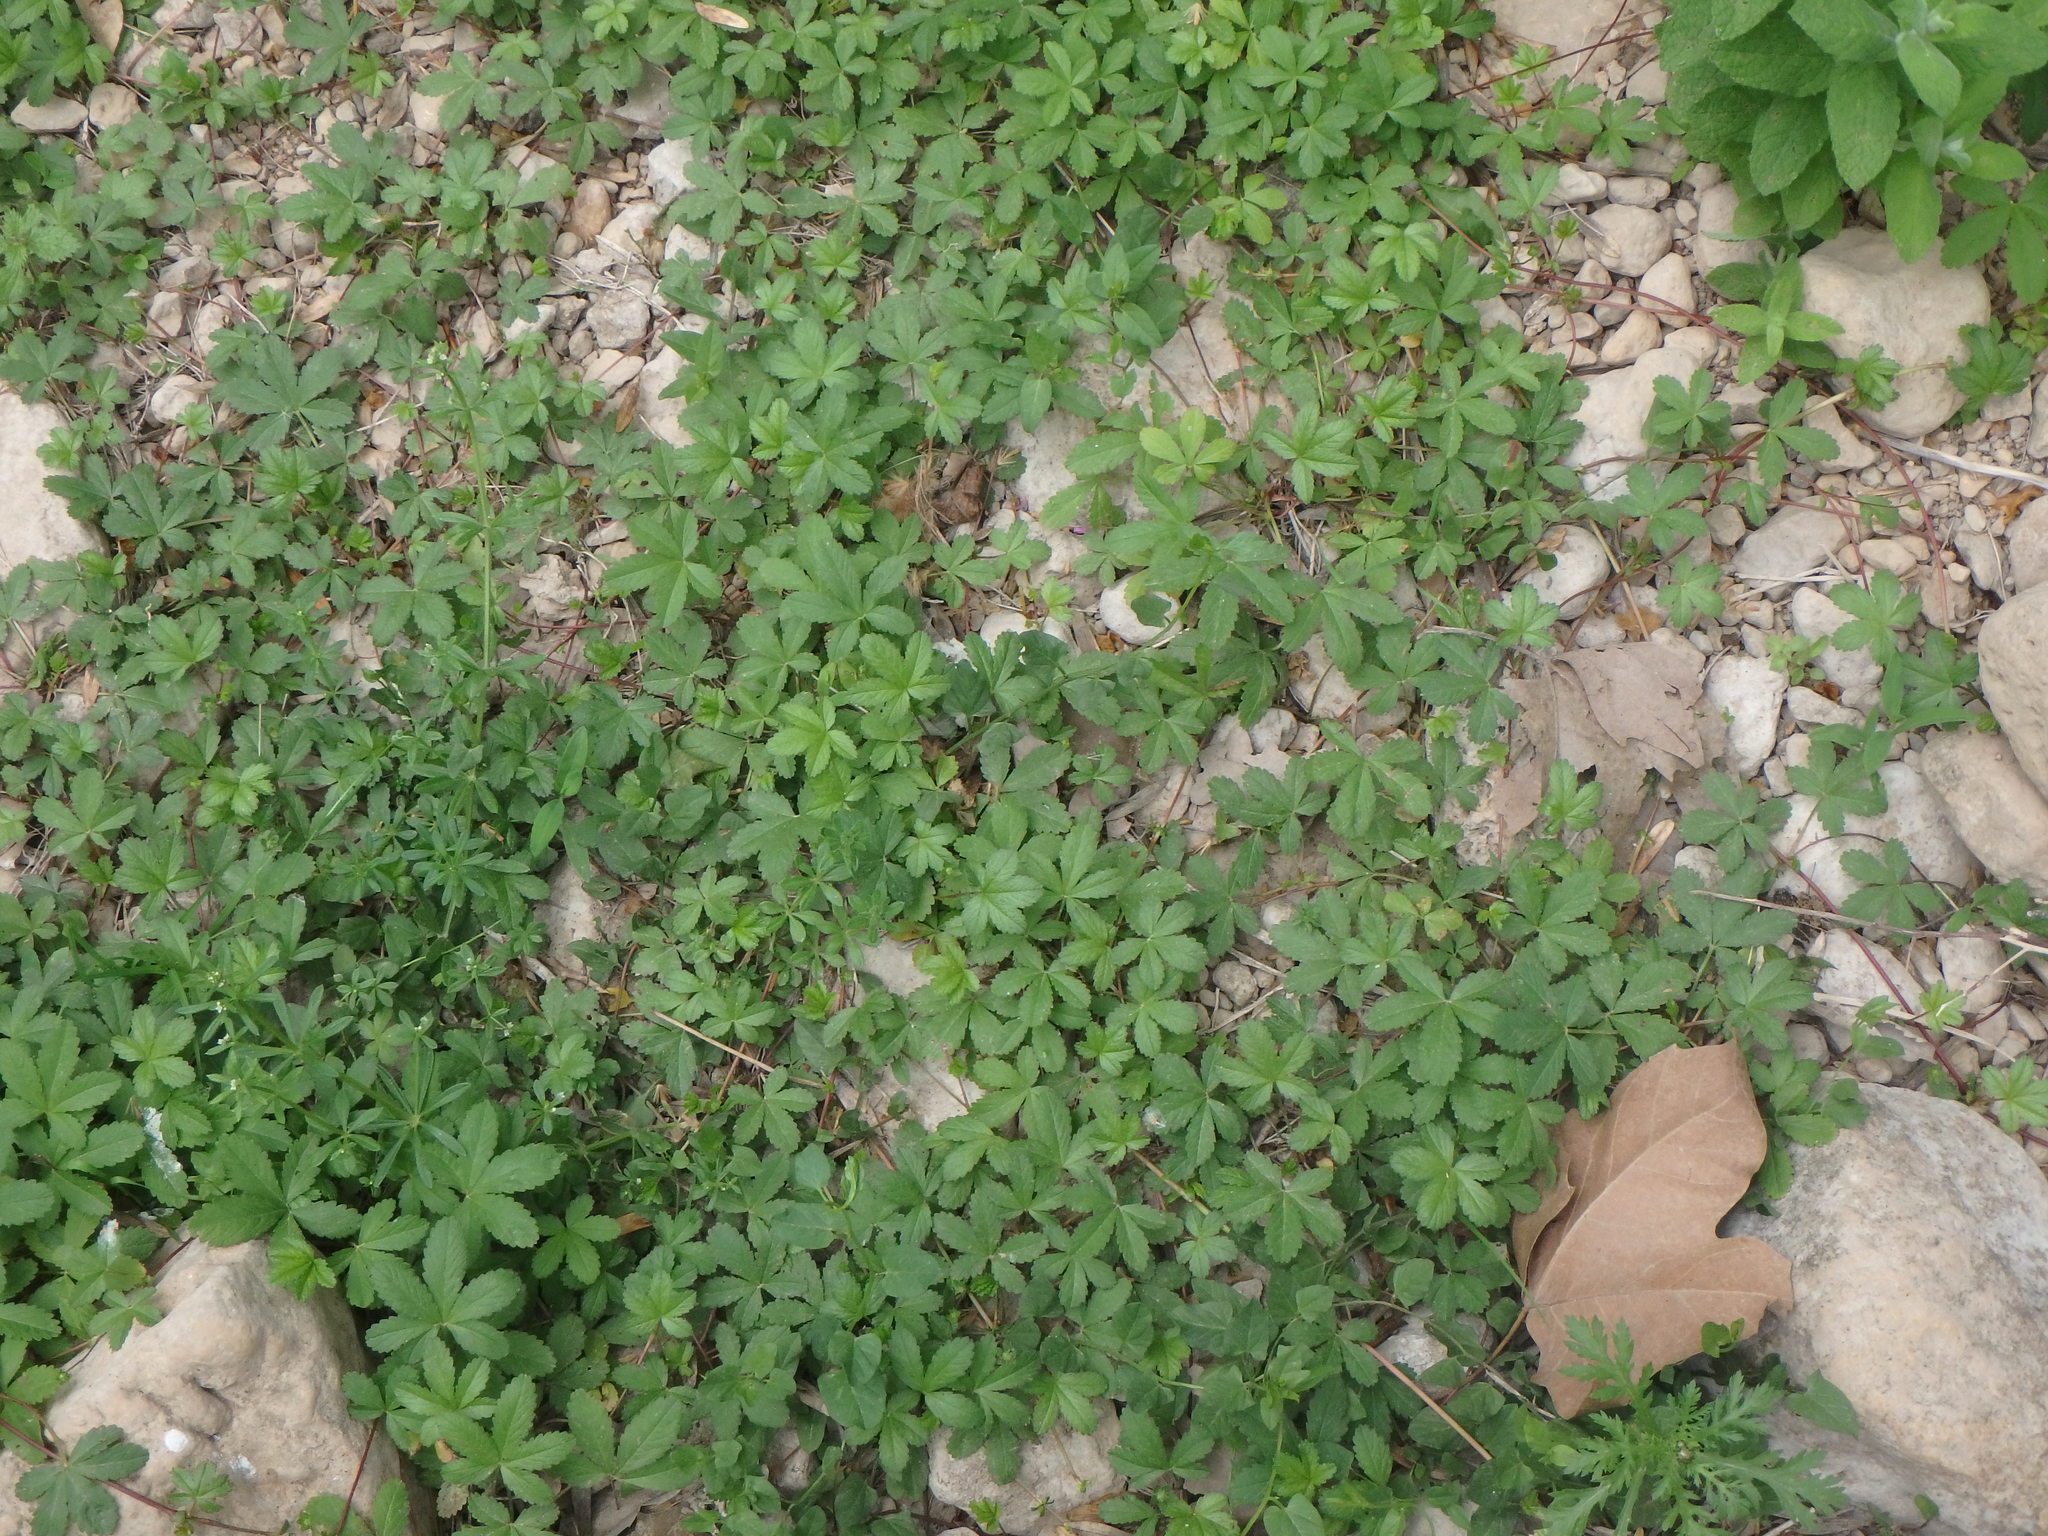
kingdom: Plantae
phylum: Tracheophyta
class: Magnoliopsida
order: Rosales
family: Rosaceae
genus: Potentilla
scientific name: Potentilla reptans
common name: Creeping cinquefoil
